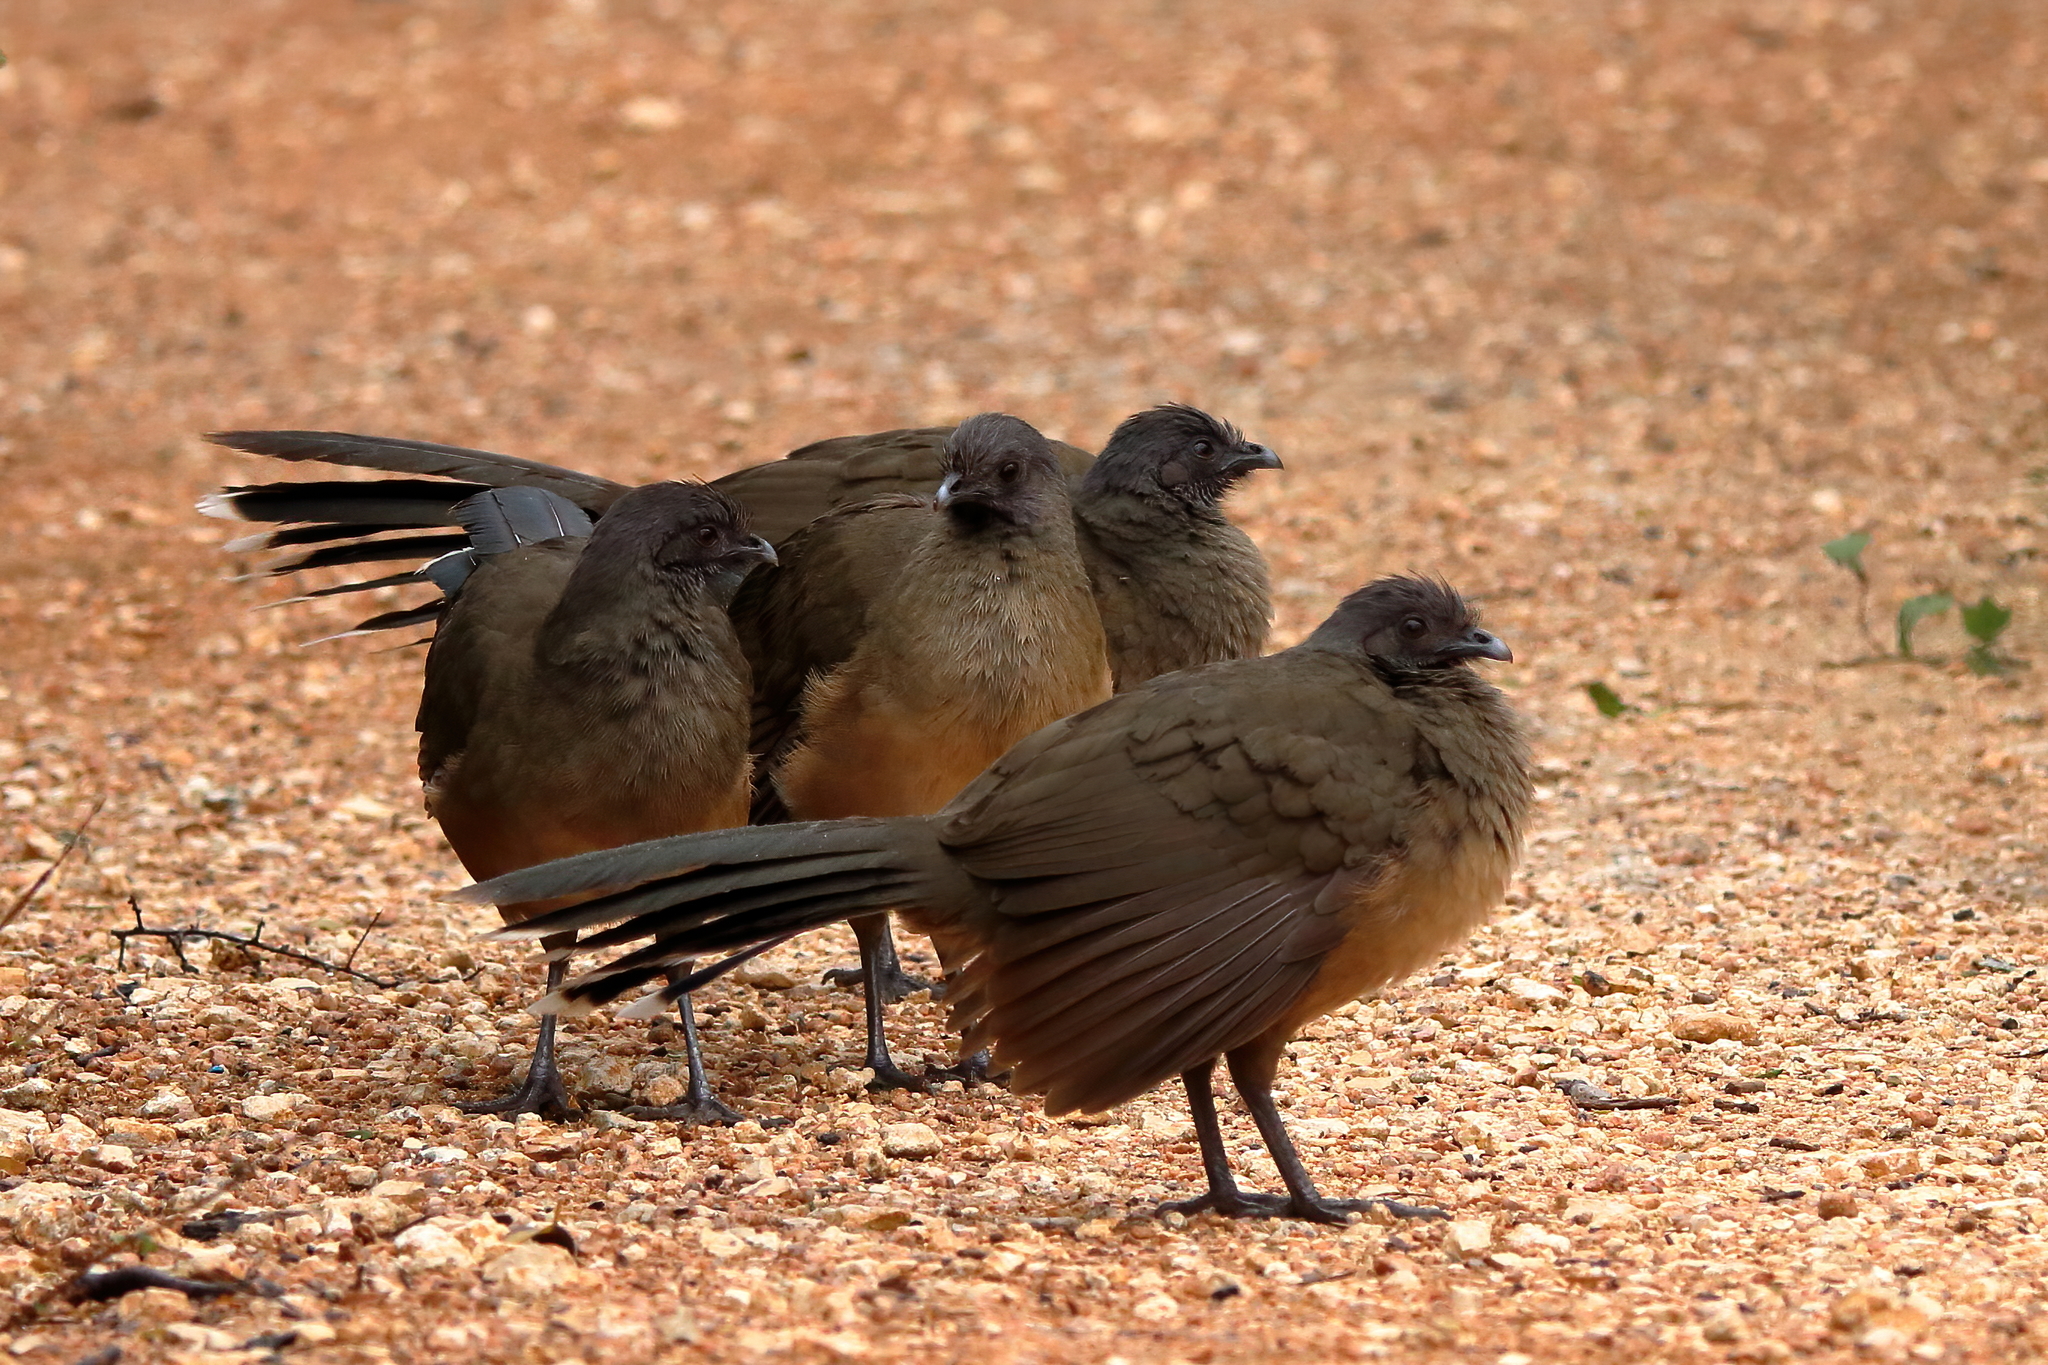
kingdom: Animalia
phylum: Chordata
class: Aves
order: Galliformes
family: Cracidae
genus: Ortalis
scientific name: Ortalis vetula
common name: Plain chachalaca
